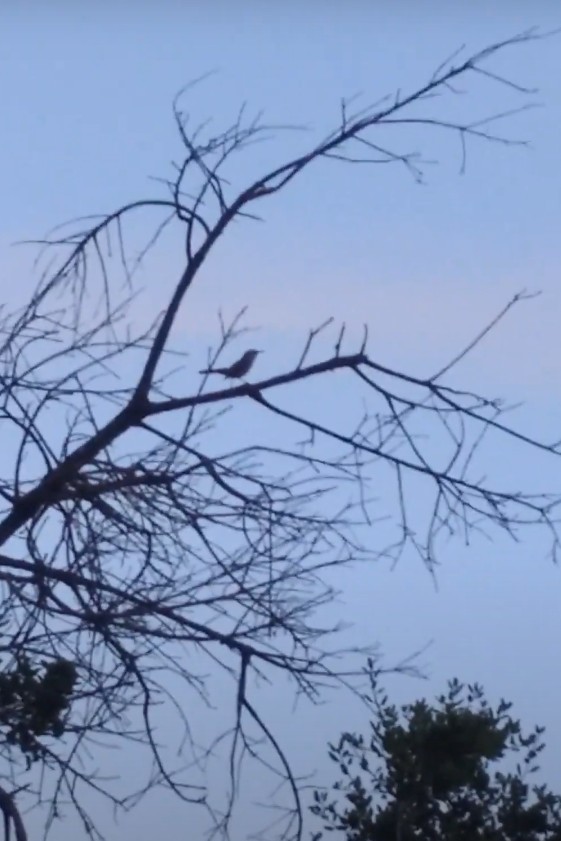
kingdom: Animalia
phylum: Chordata
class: Aves
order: Passeriformes
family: Troglodytidae
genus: Thryomanes
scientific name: Thryomanes bewickii
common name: Bewick's wren
